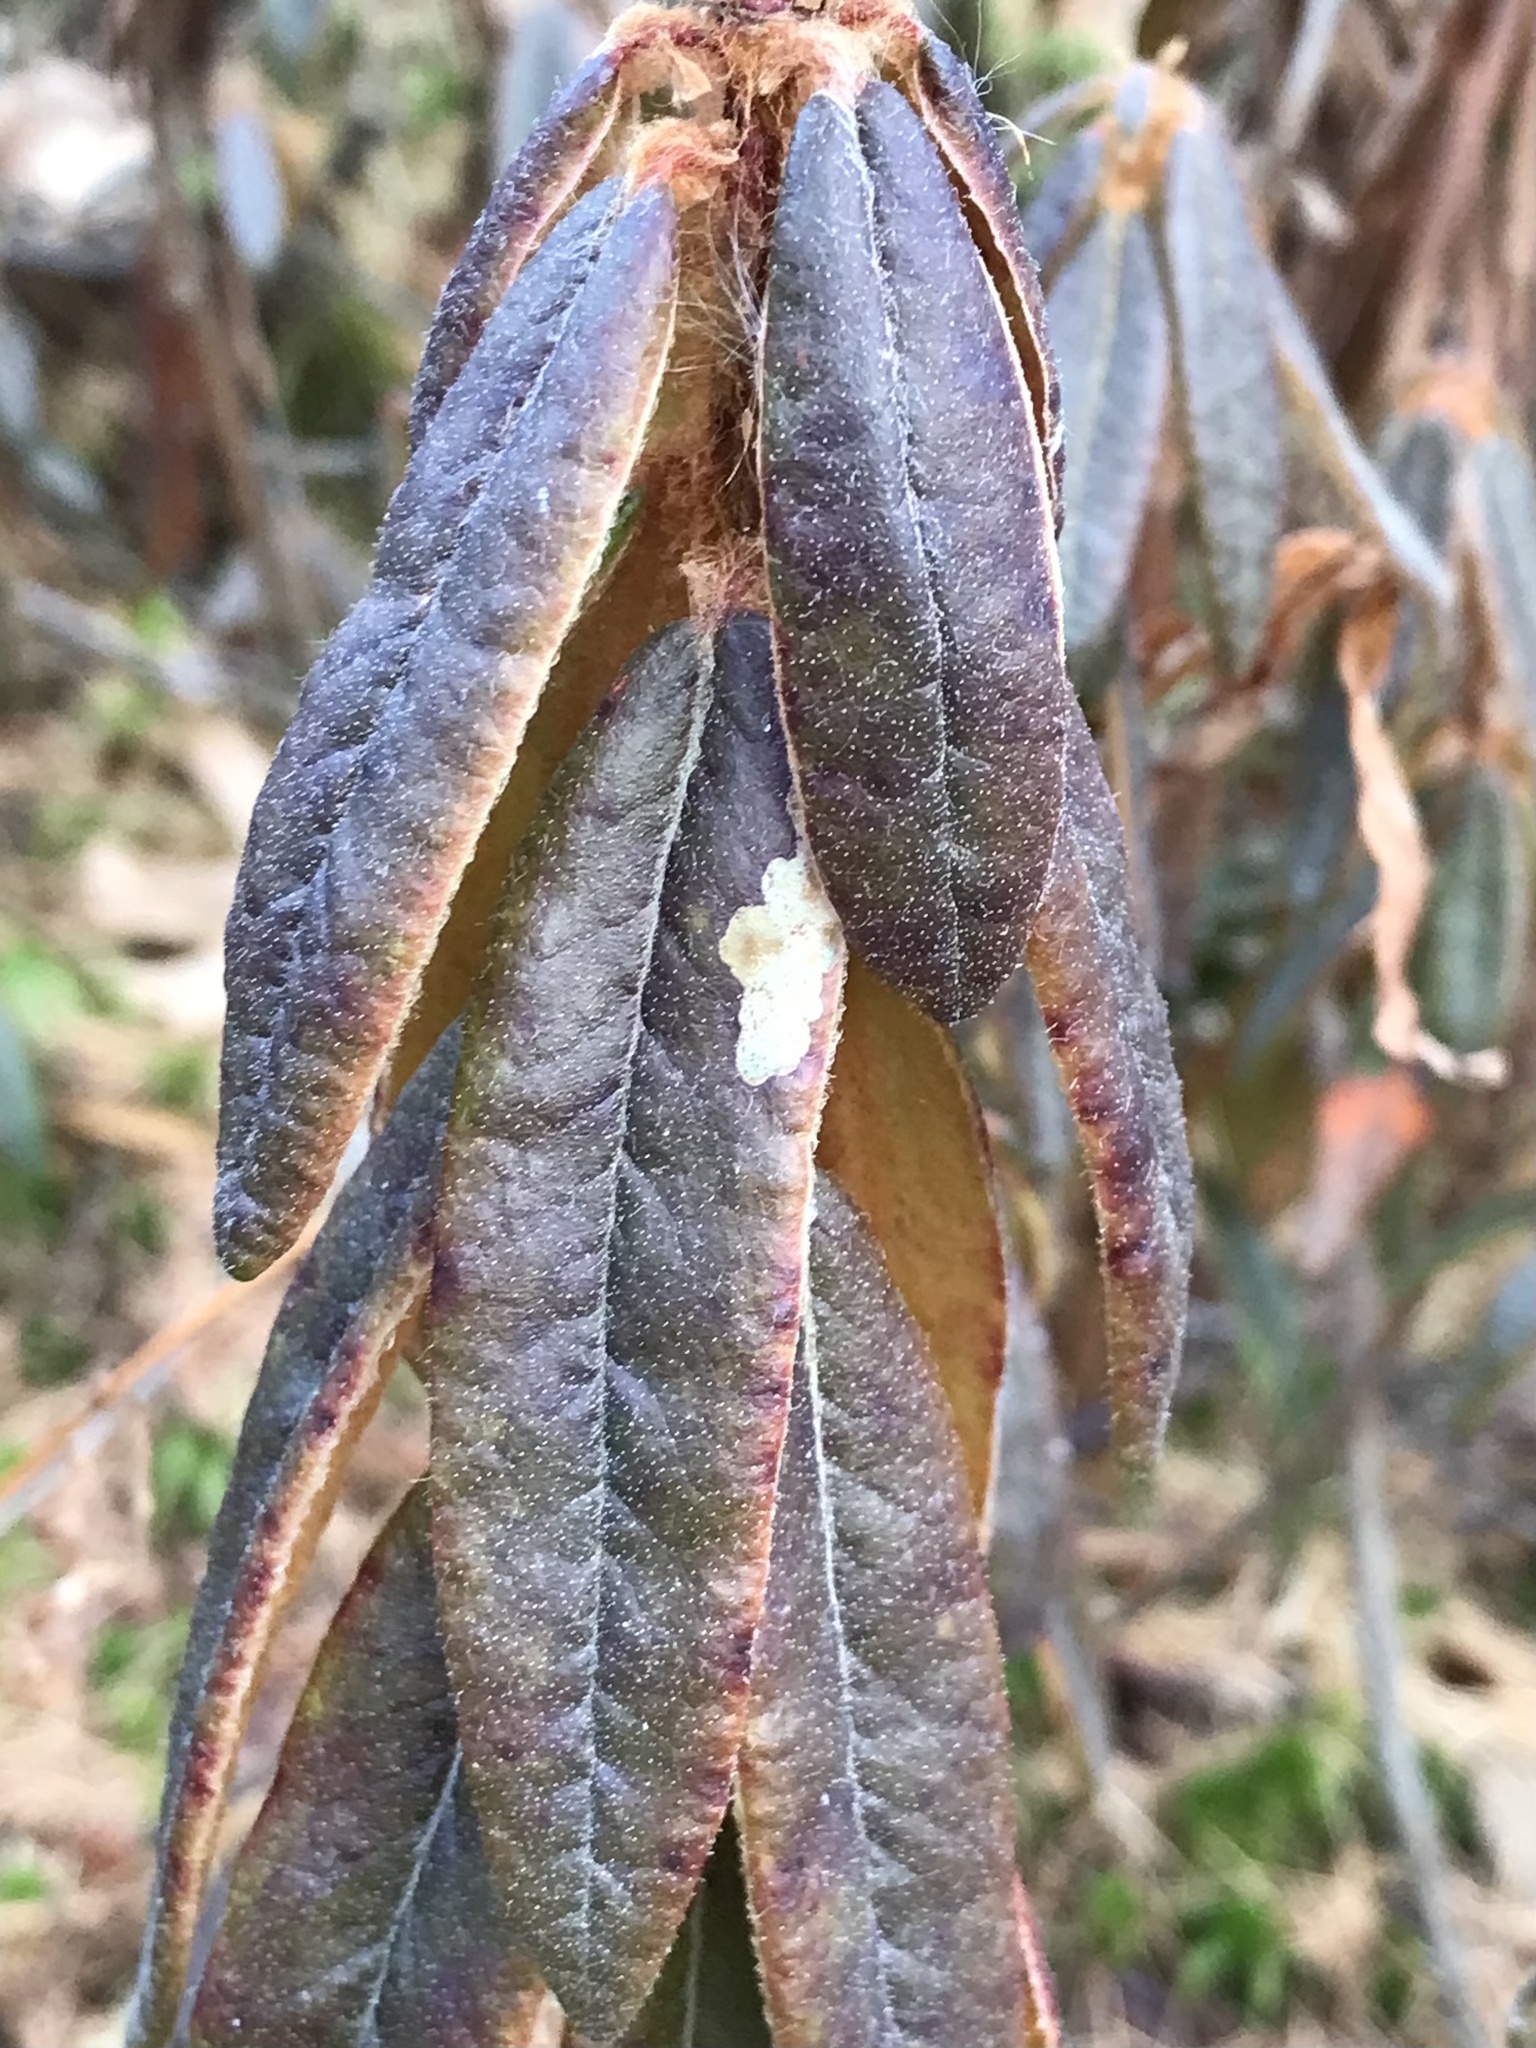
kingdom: Animalia
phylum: Arthropoda
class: Insecta
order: Lepidoptera
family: Gracillariidae
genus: Phyllonorycter
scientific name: Phyllonorycter ledella
